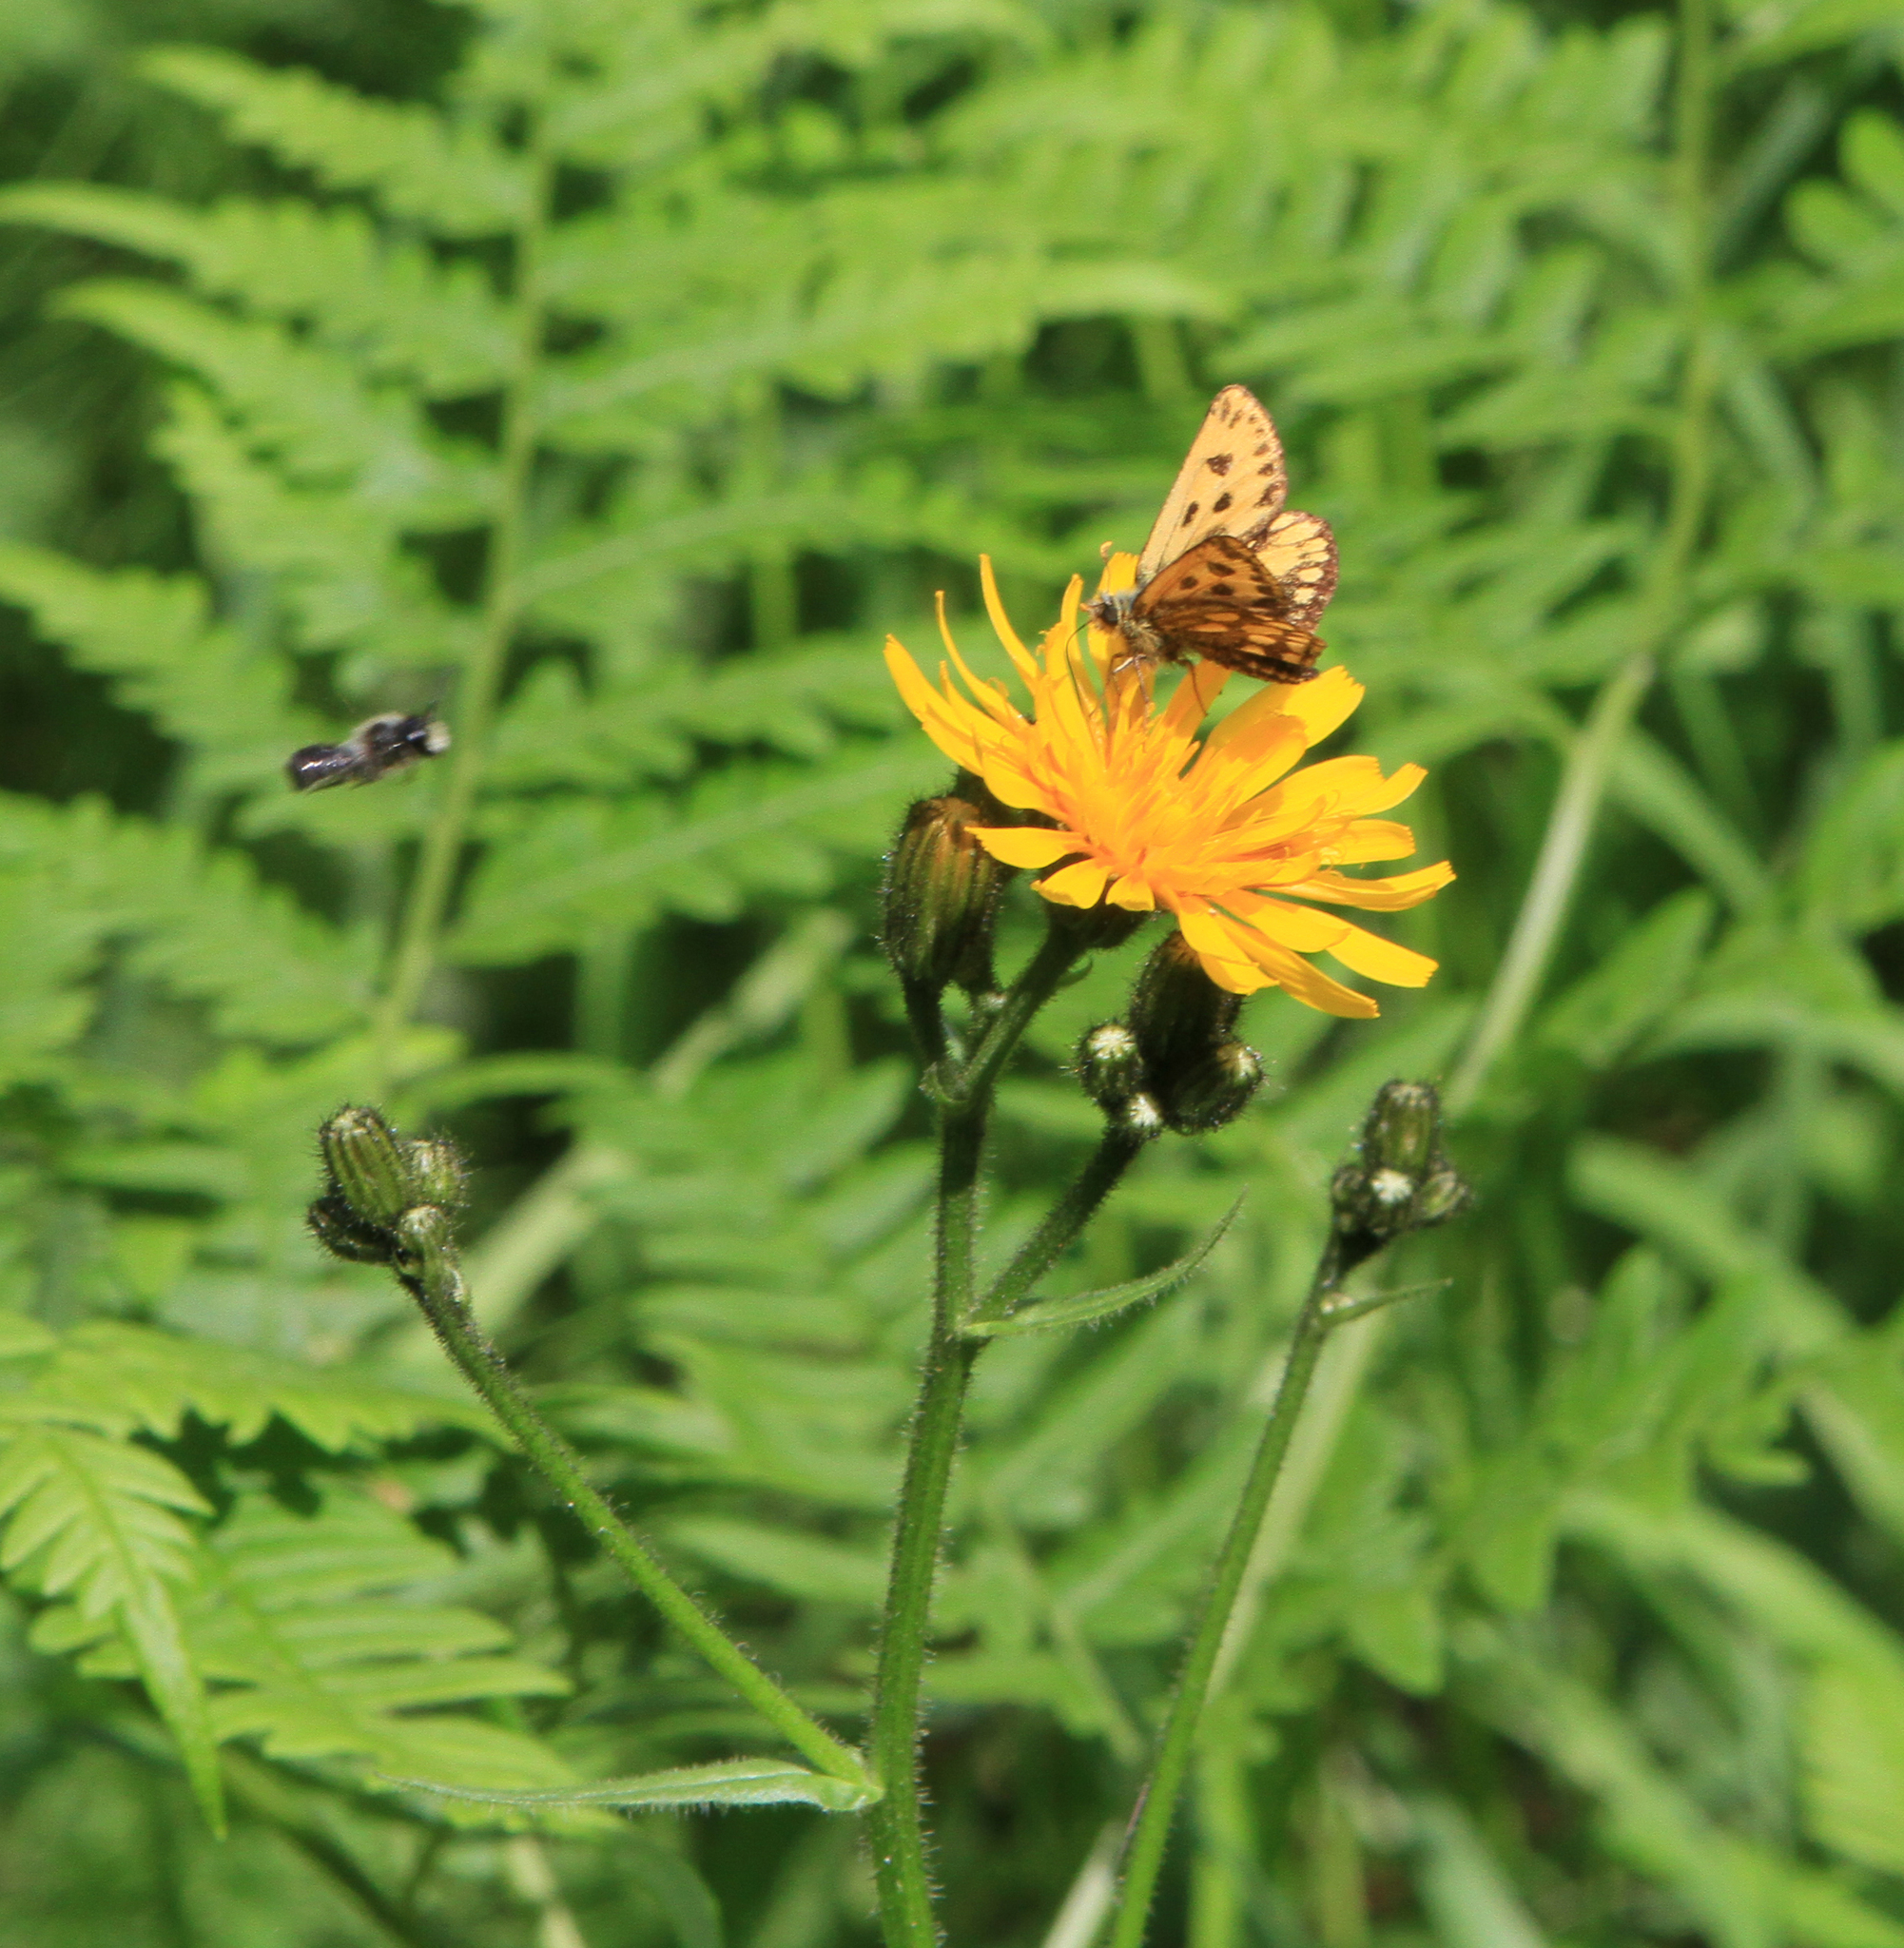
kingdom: Animalia
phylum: Arthropoda
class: Insecta
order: Lepidoptera
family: Hesperiidae
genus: Carterocephalus
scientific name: Carterocephalus silvicola
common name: Northern chequered skipper
